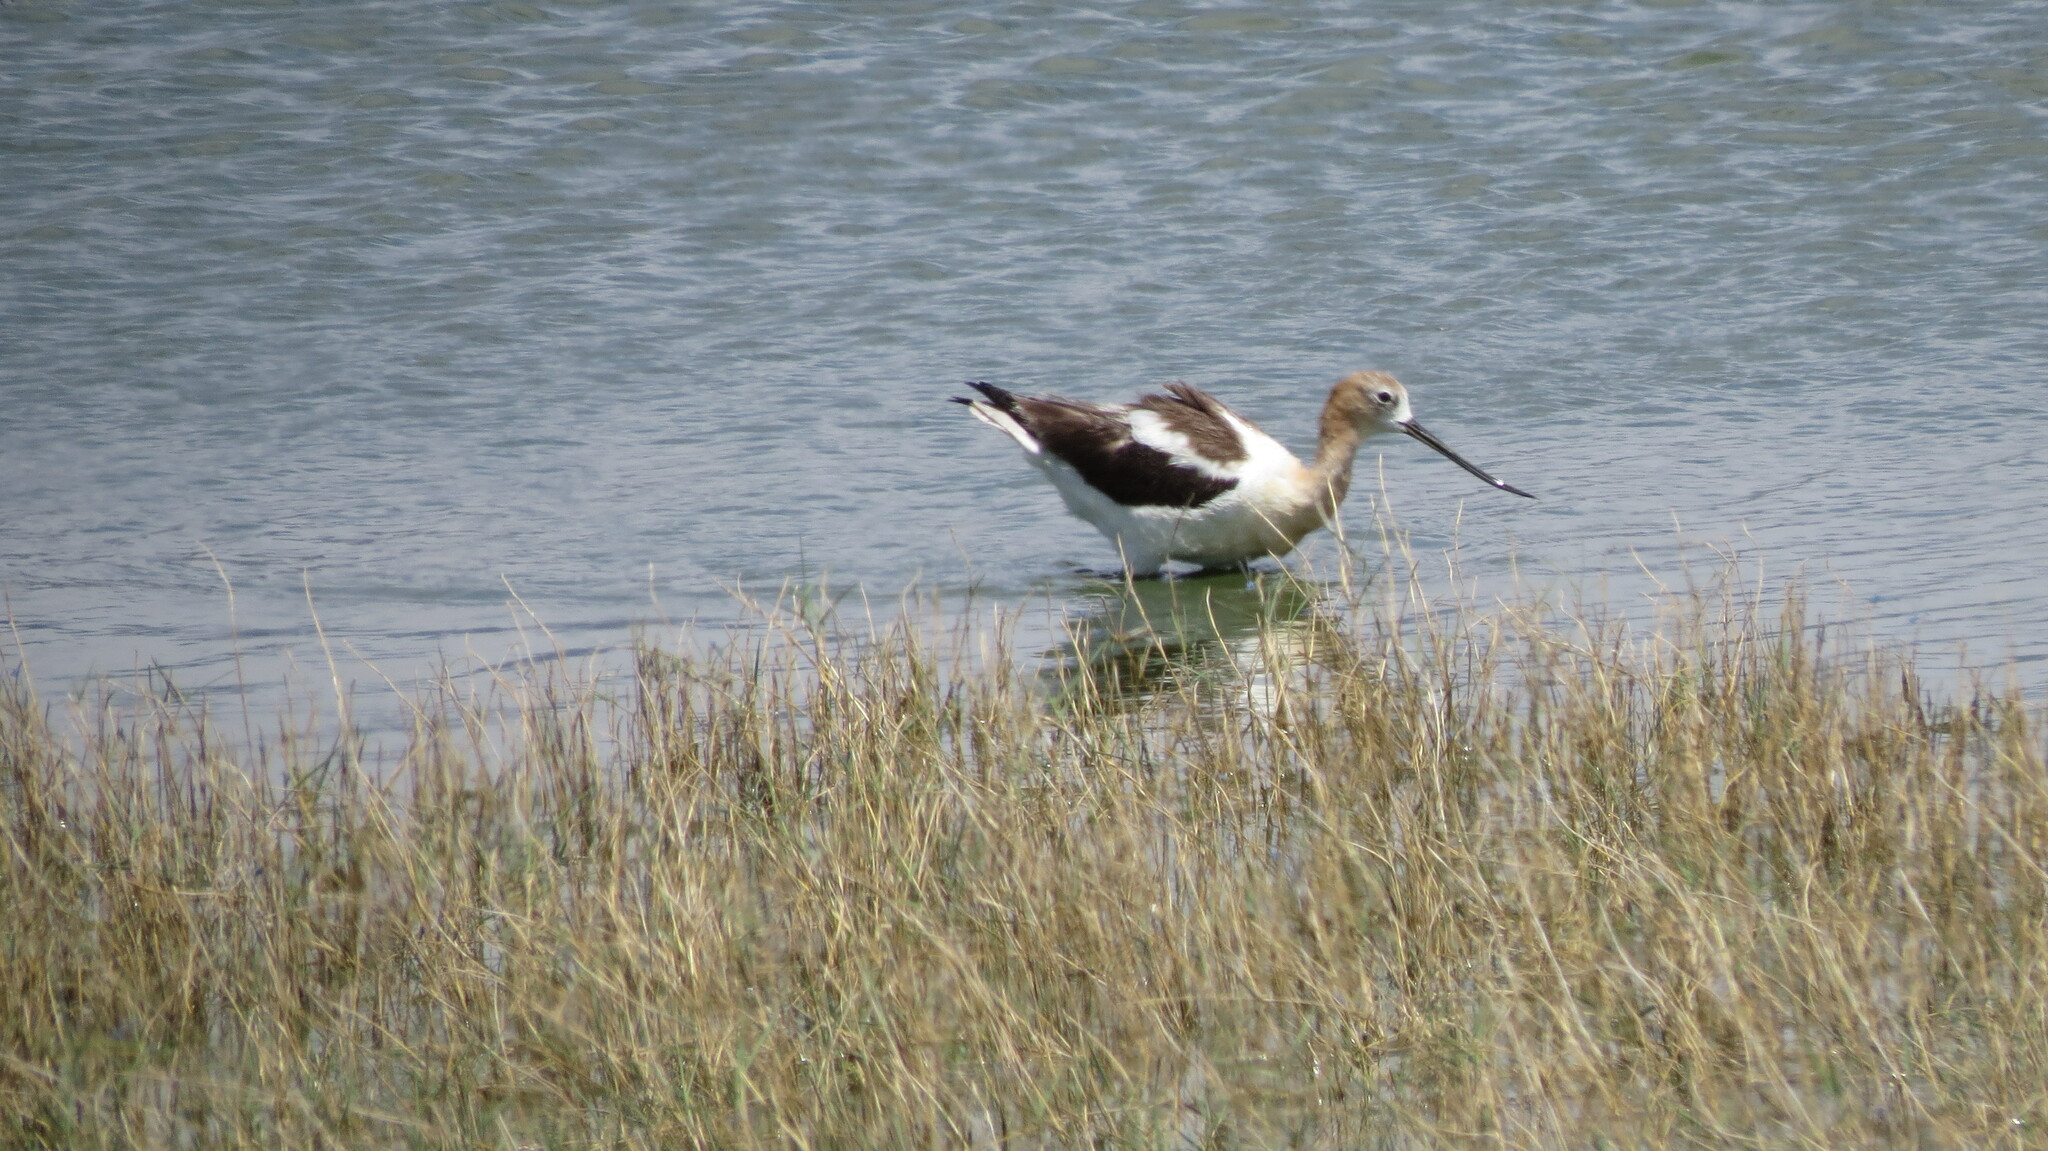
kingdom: Animalia
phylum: Chordata
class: Aves
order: Charadriiformes
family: Recurvirostridae
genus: Recurvirostra
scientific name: Recurvirostra americana
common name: American avocet
